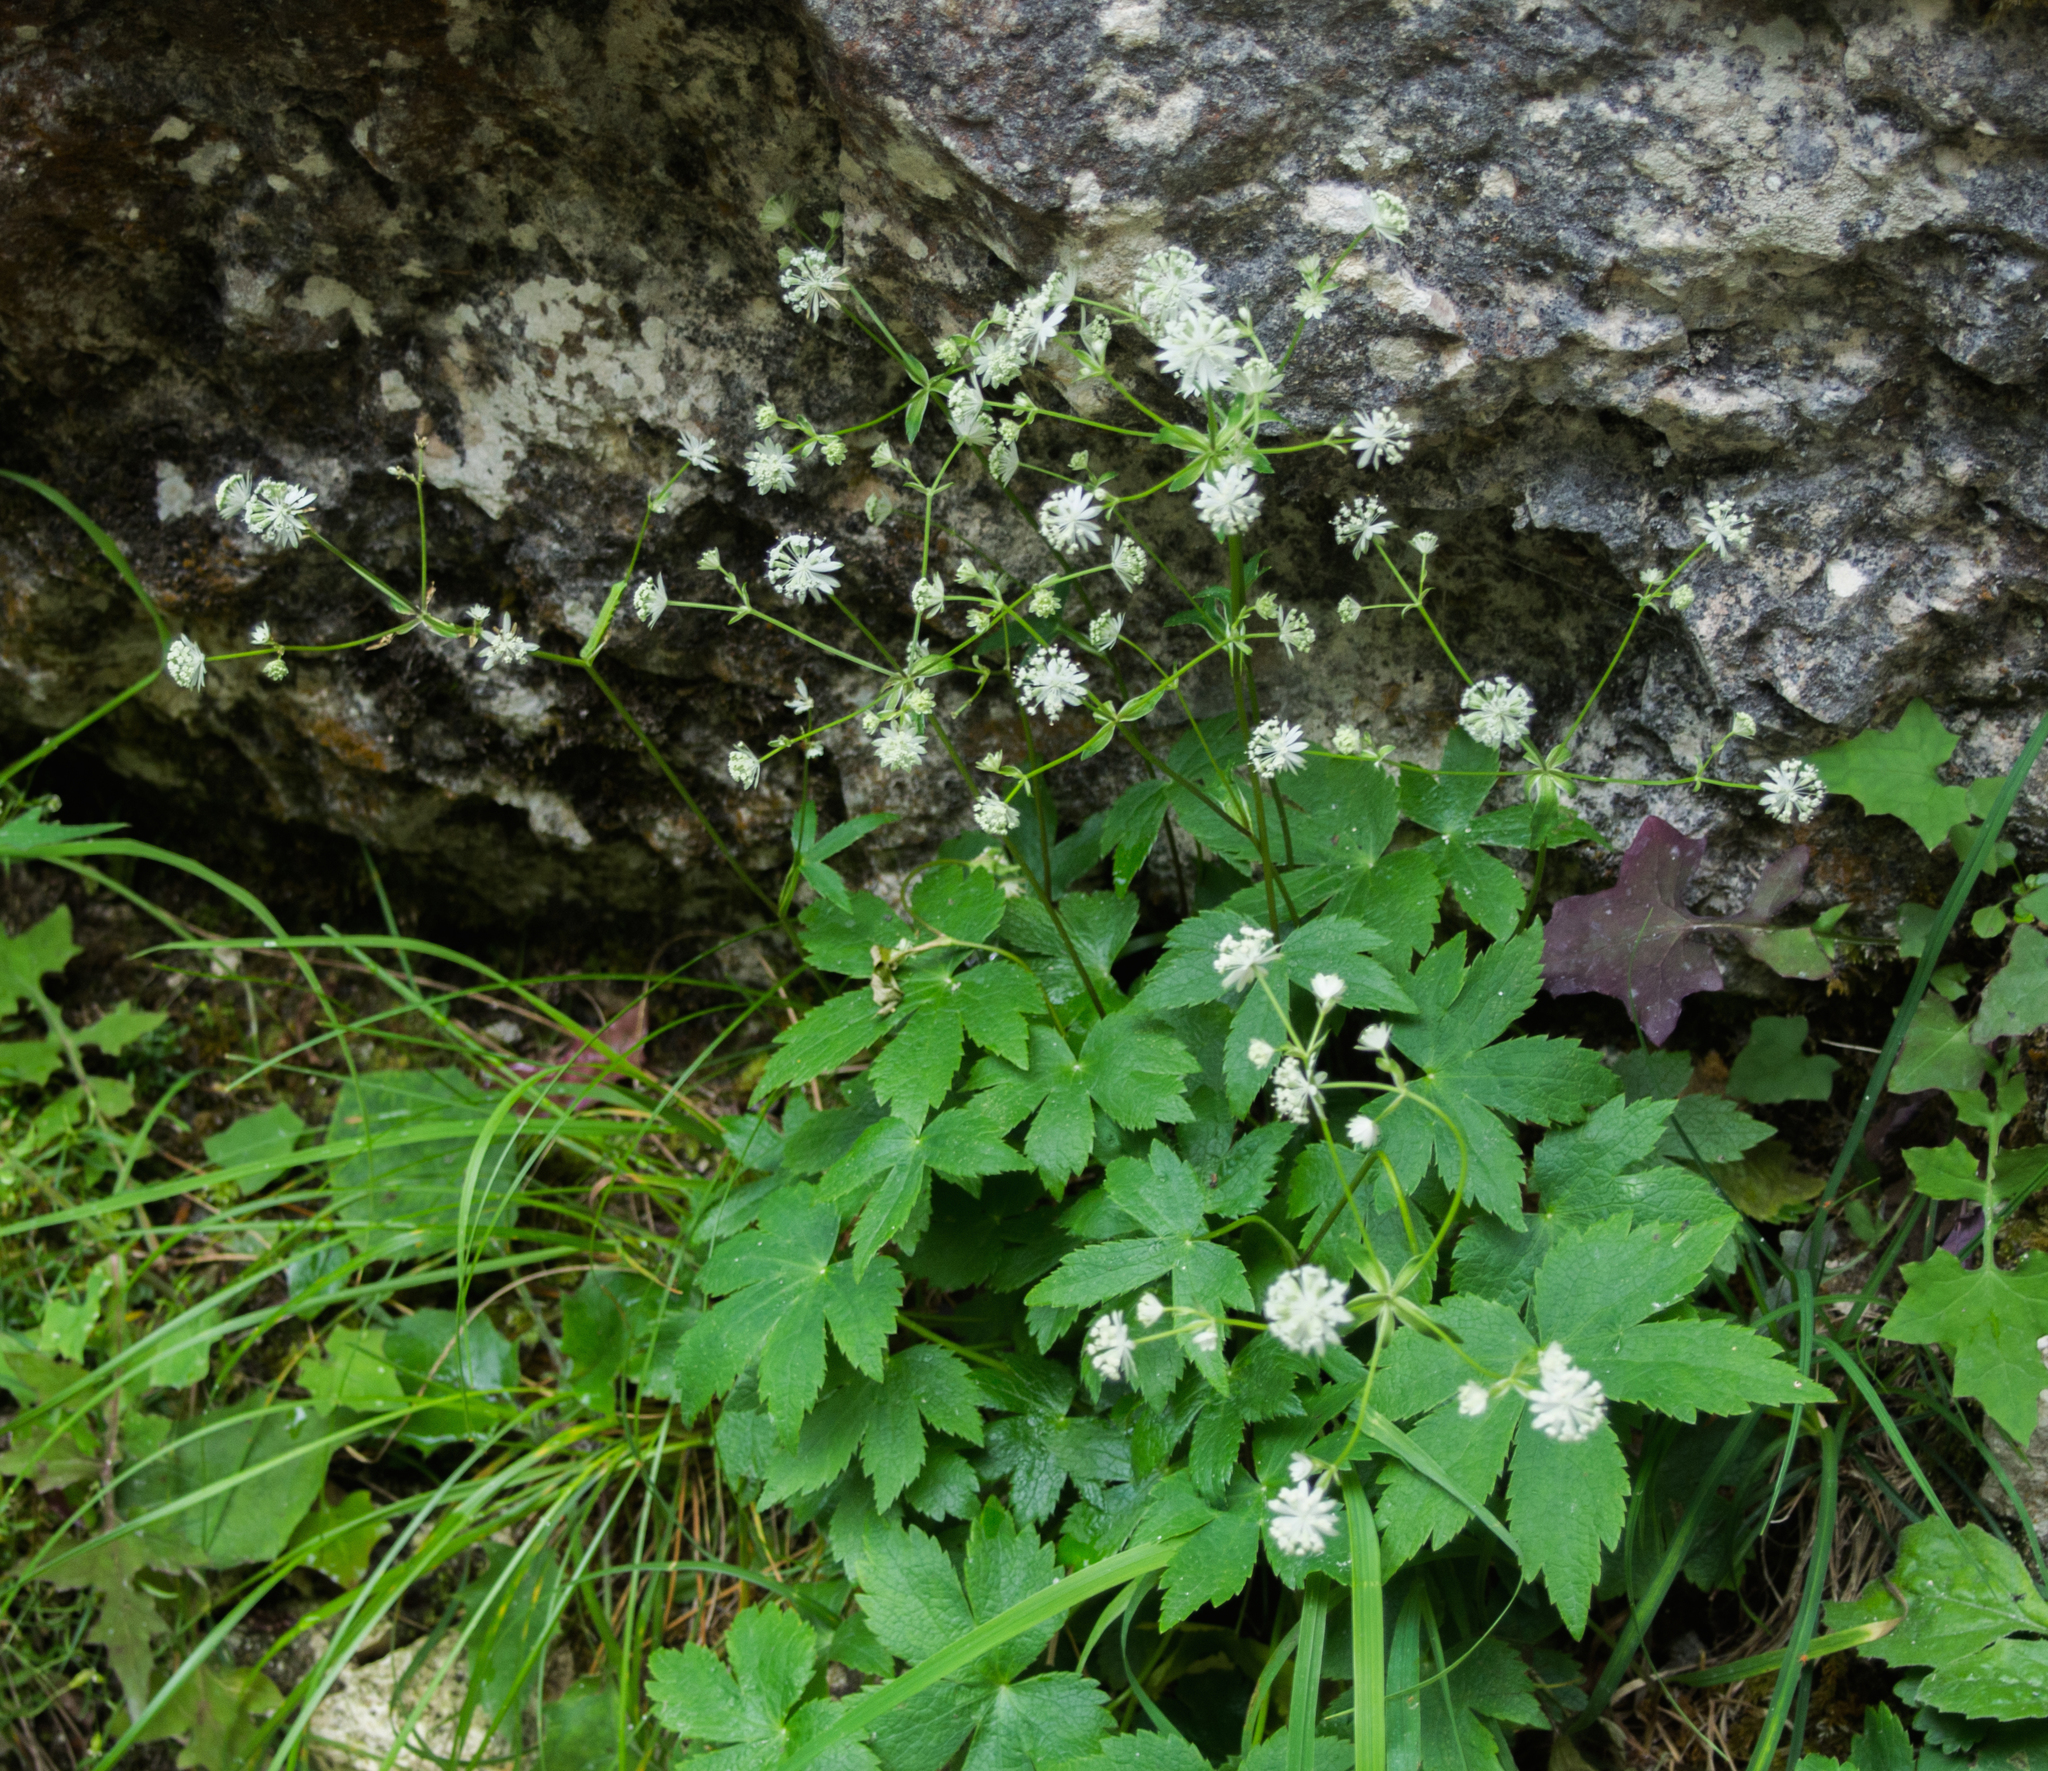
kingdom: Plantae
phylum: Tracheophyta
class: Magnoliopsida
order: Apiales
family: Apiaceae
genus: Astrantia
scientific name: Astrantia carniolica
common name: Carnic masterwort
